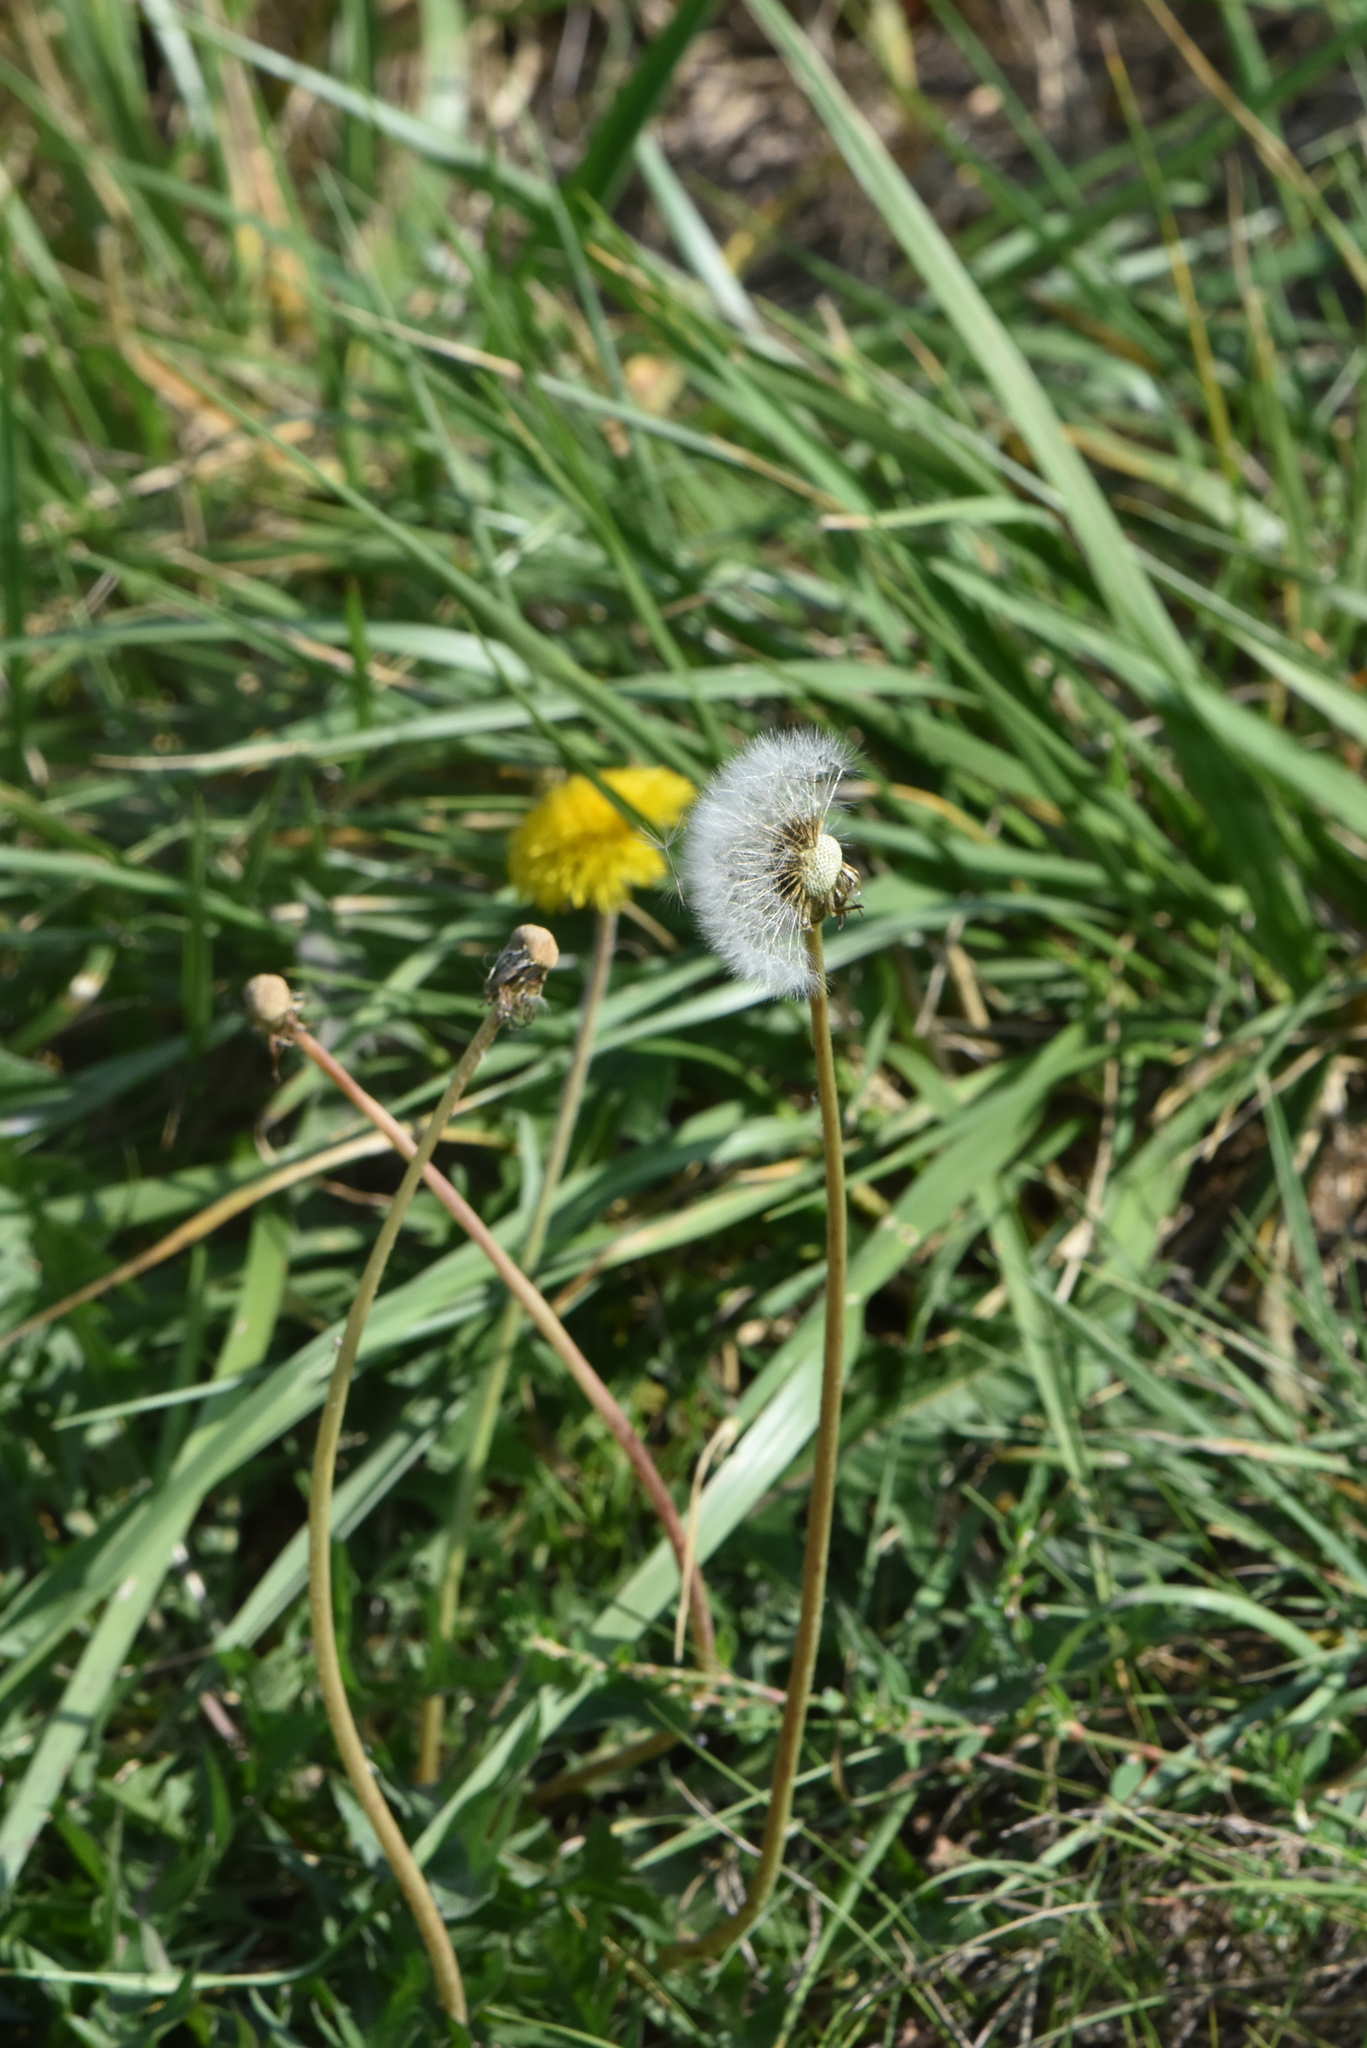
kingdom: Plantae
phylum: Tracheophyta
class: Magnoliopsida
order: Asterales
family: Asteraceae
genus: Taraxacum
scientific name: Taraxacum officinale
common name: Common dandelion
